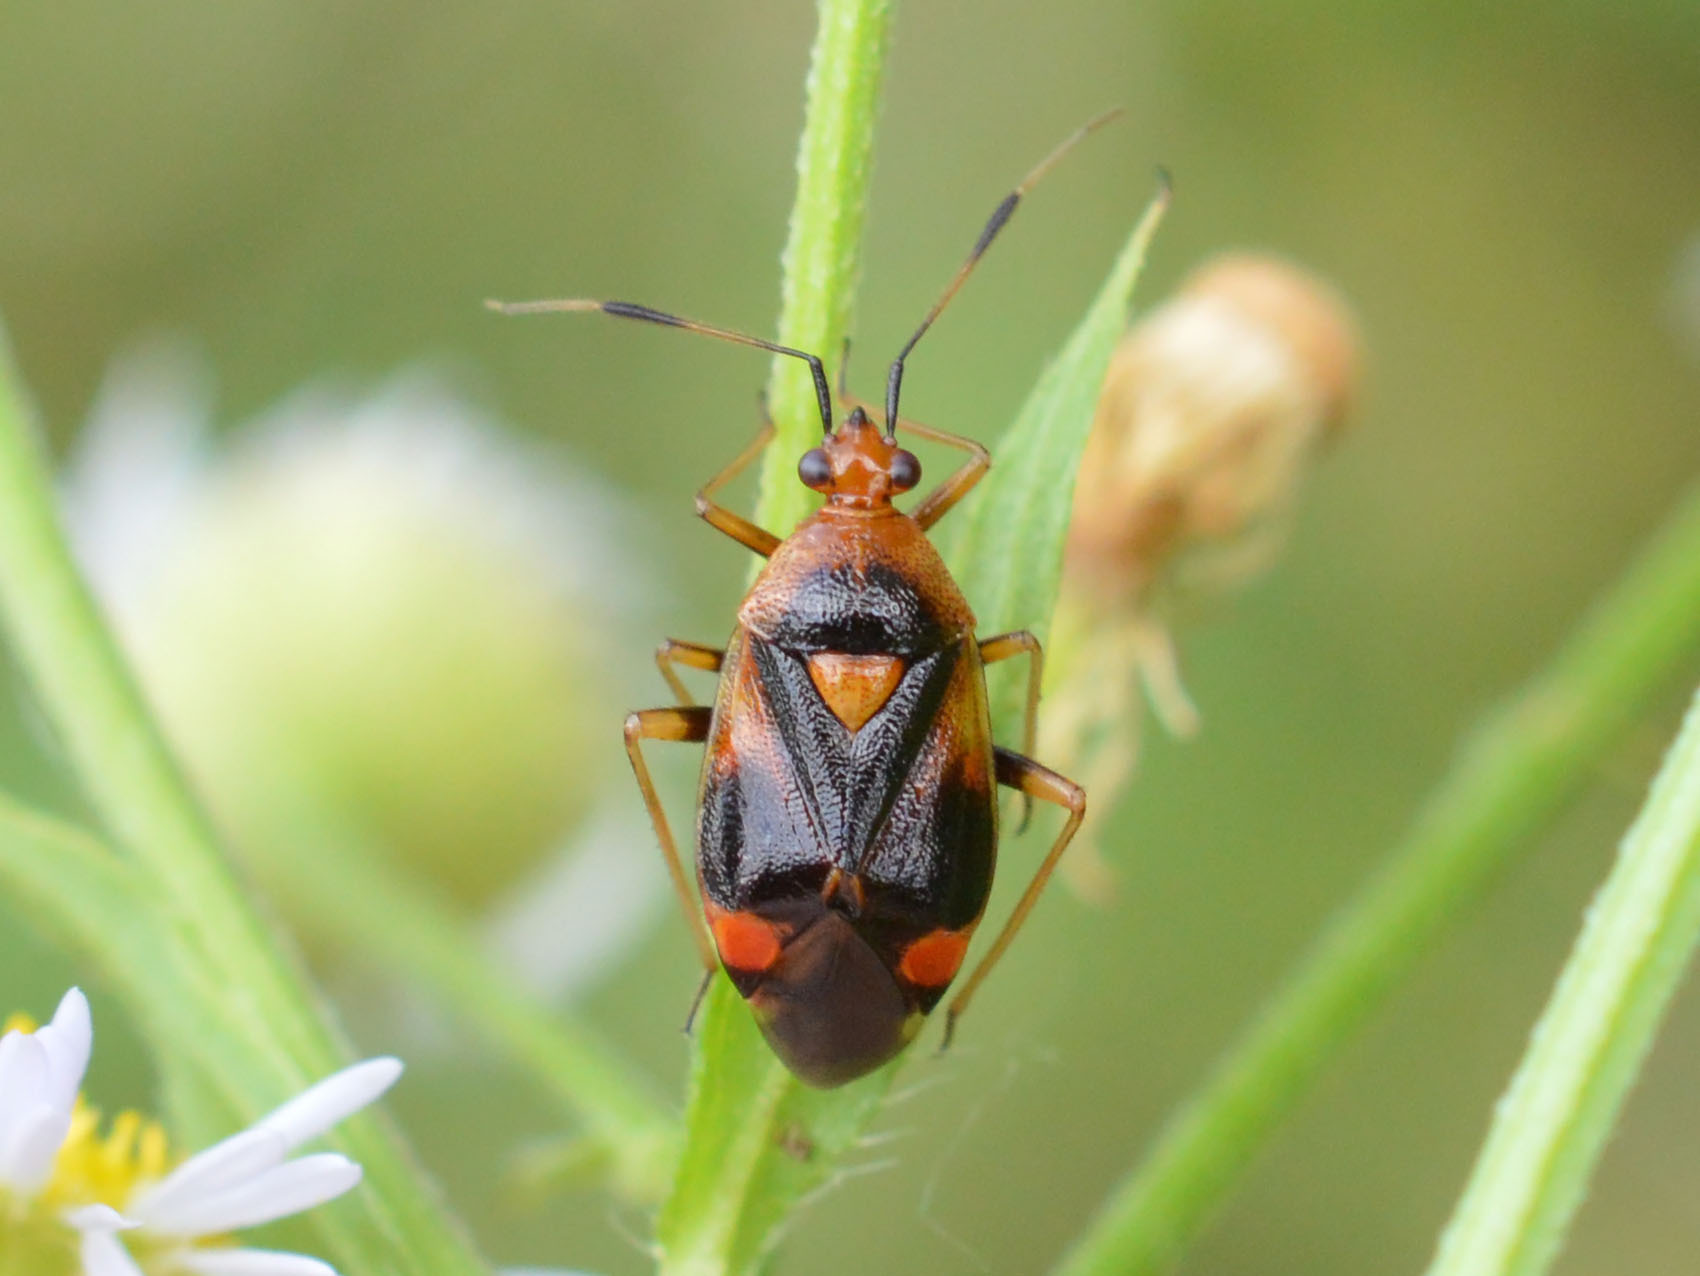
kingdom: Animalia
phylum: Arthropoda
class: Insecta
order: Hemiptera
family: Miridae
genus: Deraeocoris
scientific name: Deraeocoris ruber
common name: Plant bug
